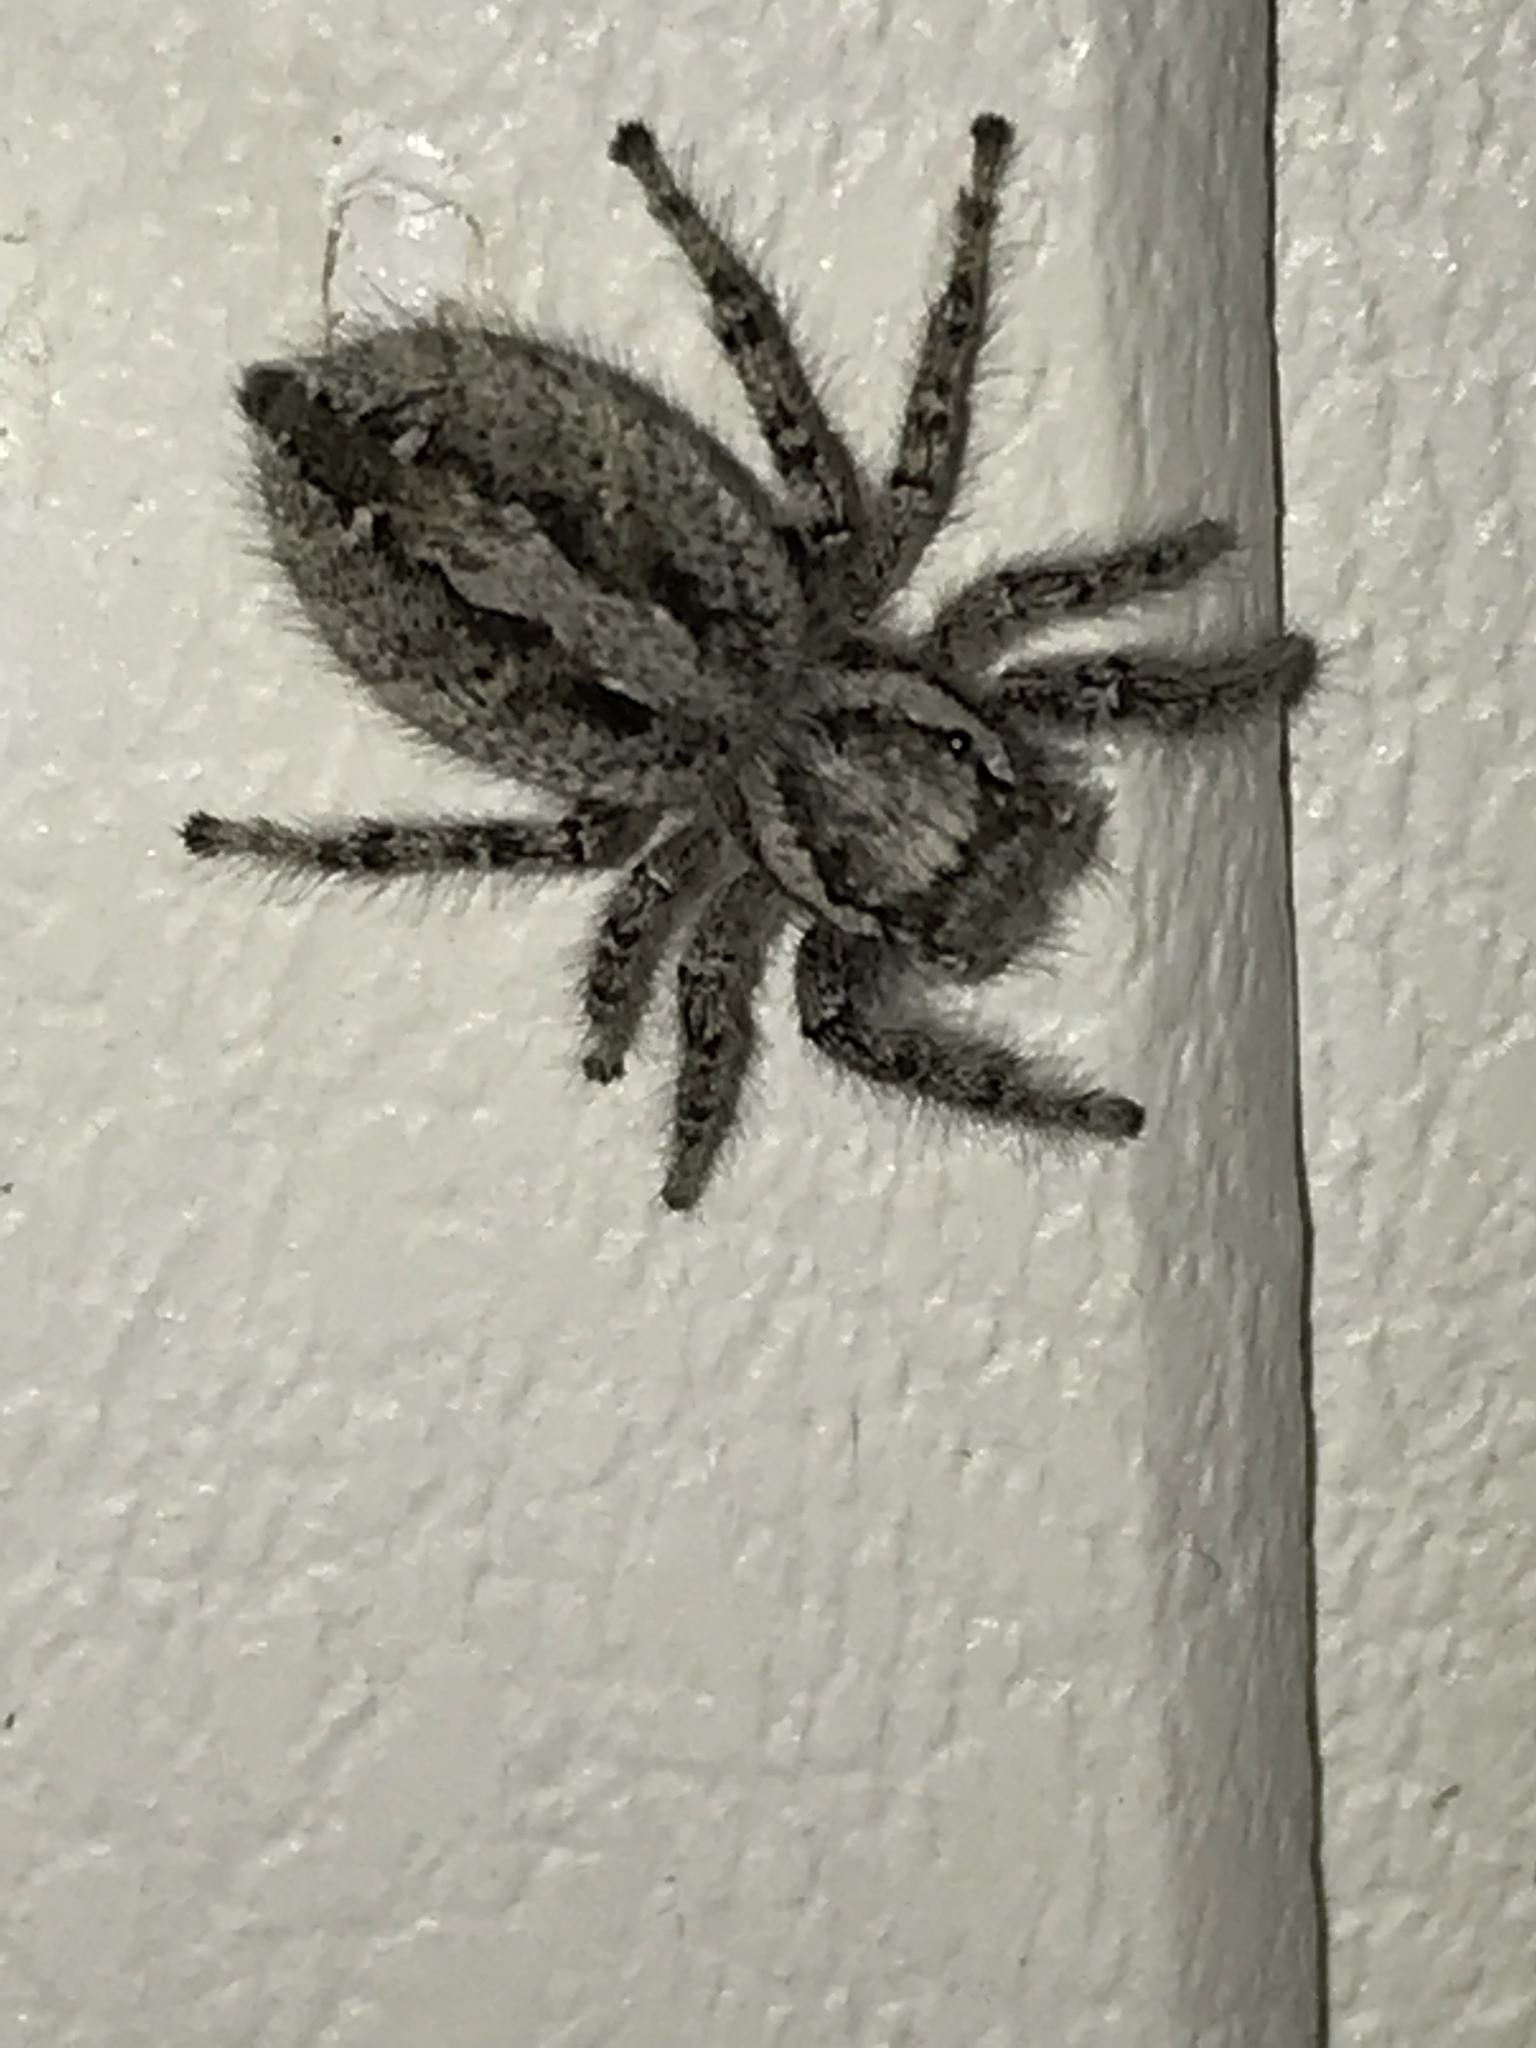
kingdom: Animalia
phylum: Arthropoda
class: Arachnida
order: Araneae
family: Salticidae
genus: Phidippus
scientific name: Phidippus asotus
